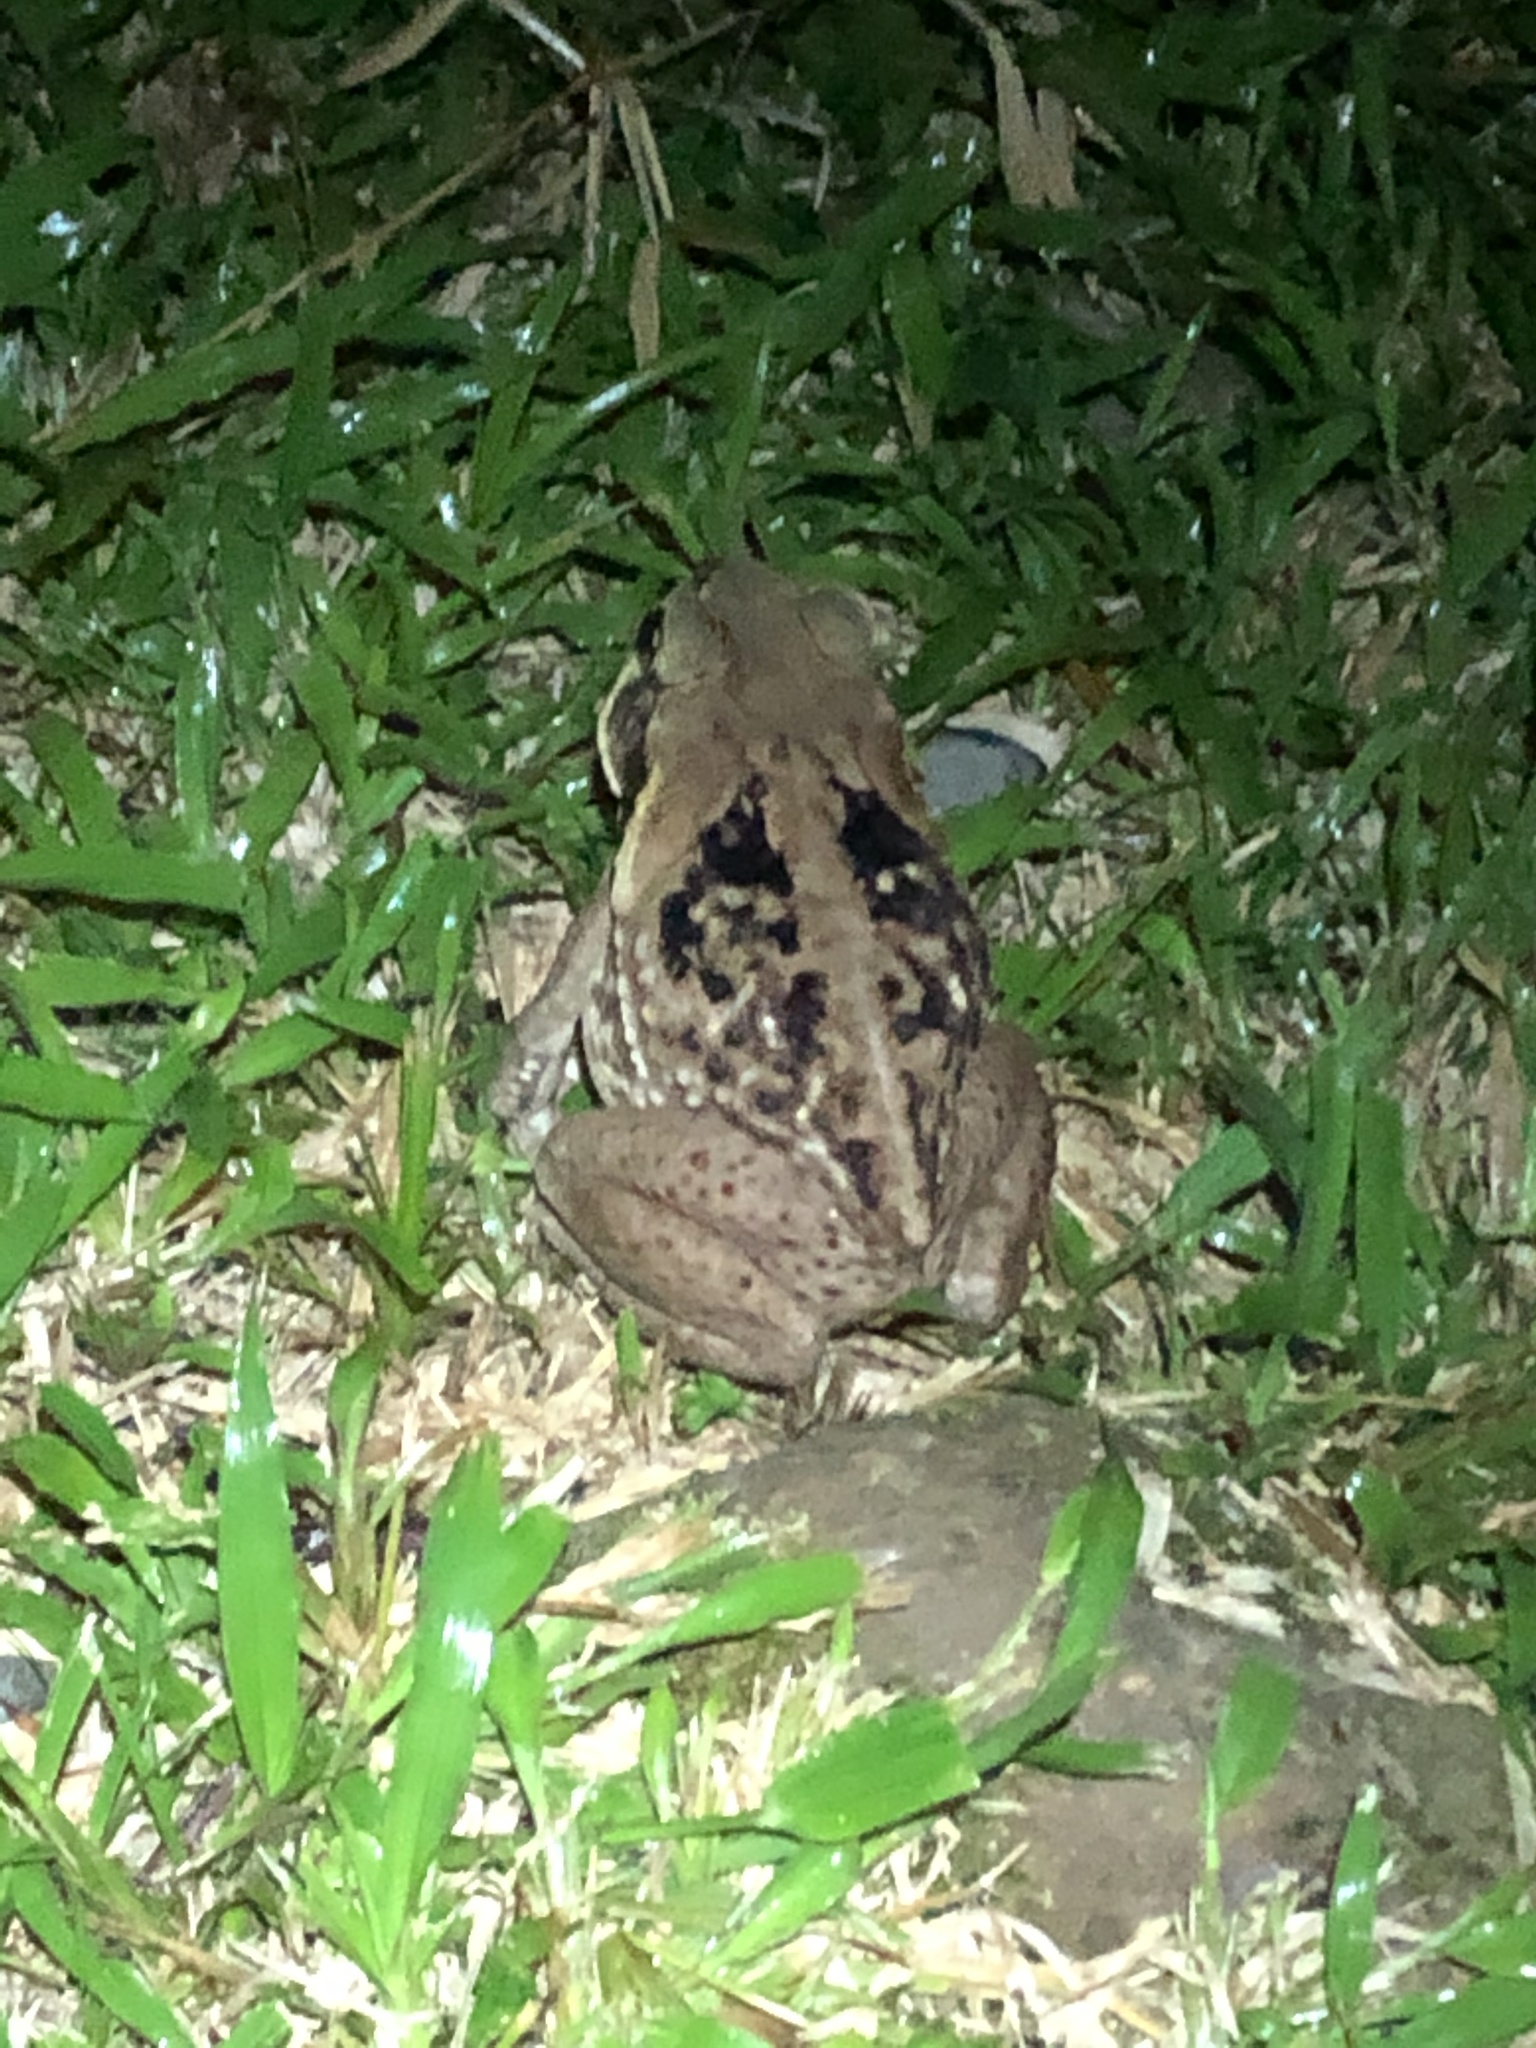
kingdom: Animalia
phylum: Chordata
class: Amphibia
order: Anura
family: Bufonidae
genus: Rhinella
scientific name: Rhinella marina
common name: Cane toad
